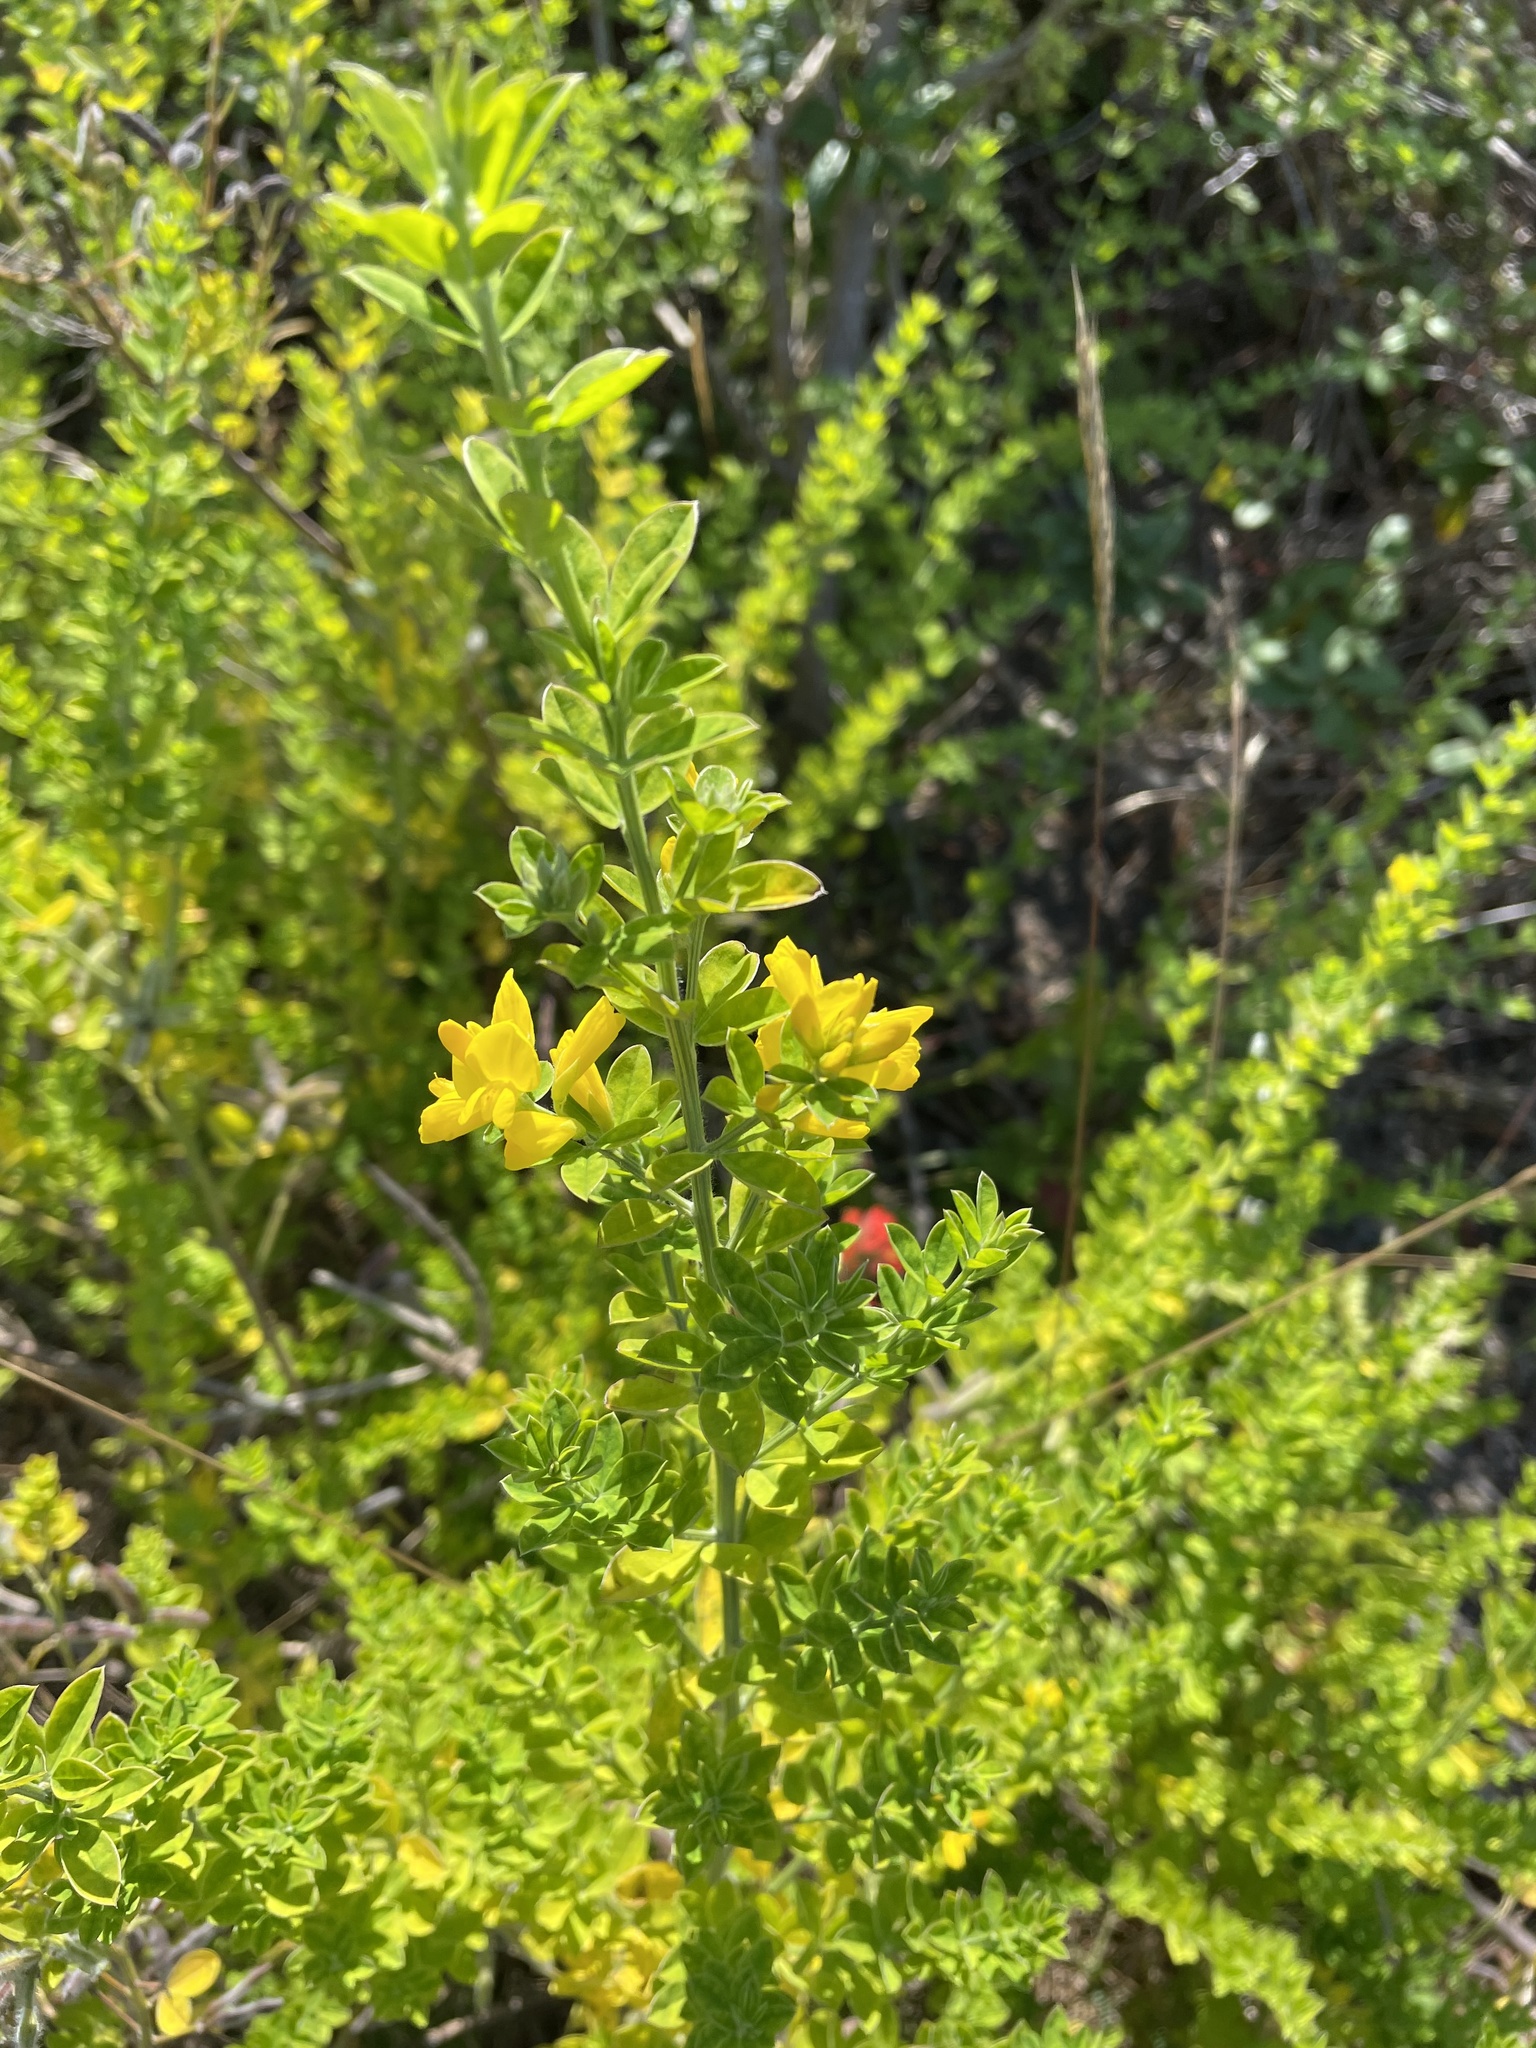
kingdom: Plantae
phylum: Tracheophyta
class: Magnoliopsida
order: Fabales
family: Fabaceae
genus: Genista
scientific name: Genista monspessulana
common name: Montpellier broom
